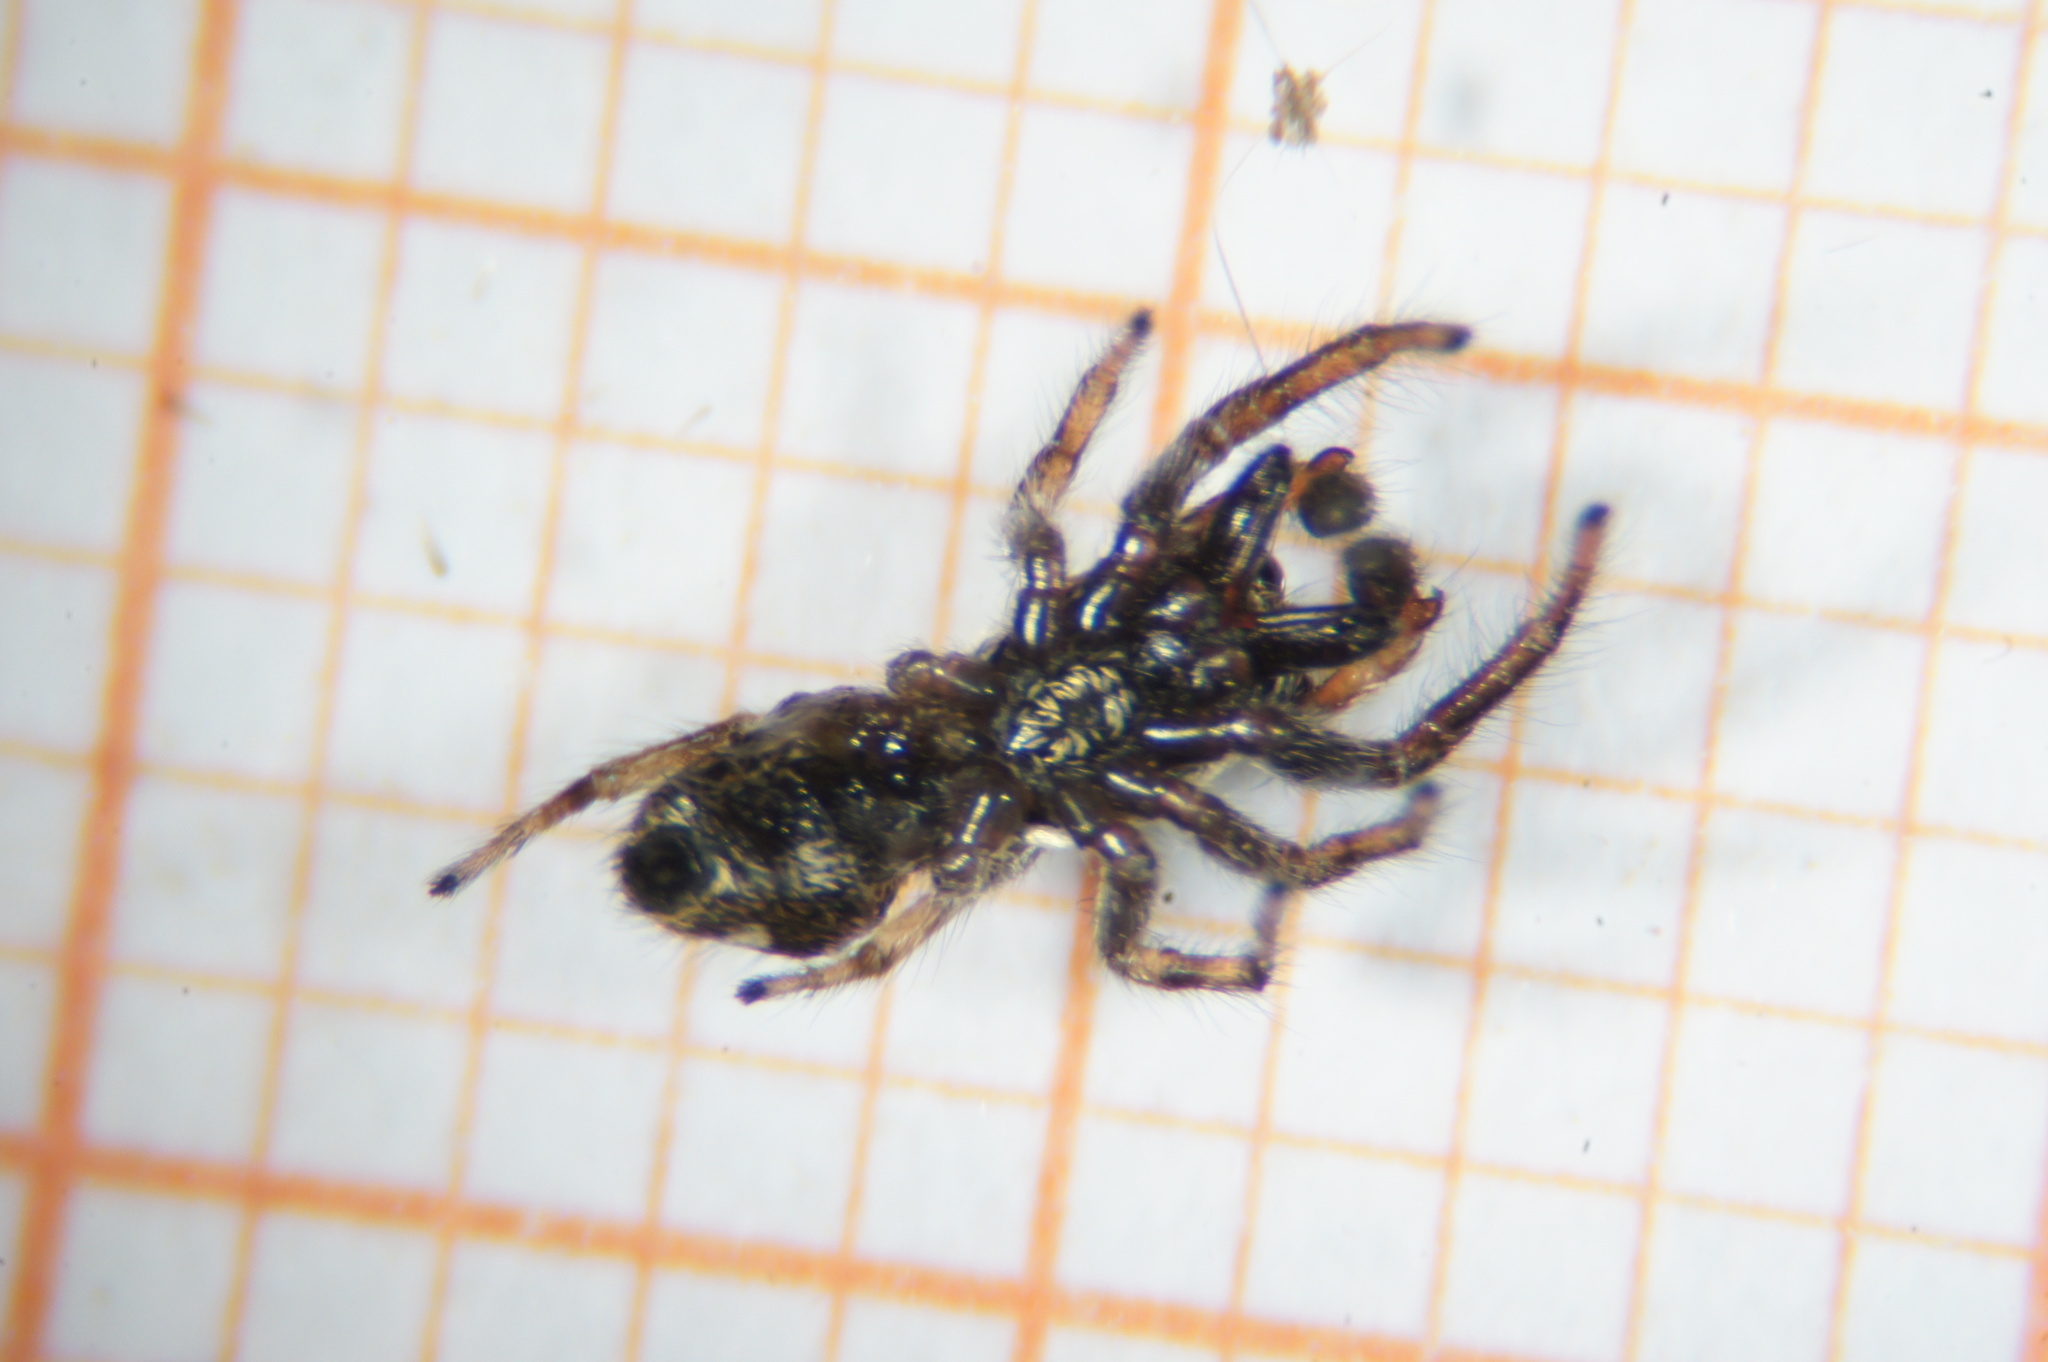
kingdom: Animalia
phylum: Arthropoda
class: Arachnida
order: Araneae
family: Salticidae
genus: Salticus
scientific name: Salticus scenicus
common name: Zebra jumper
